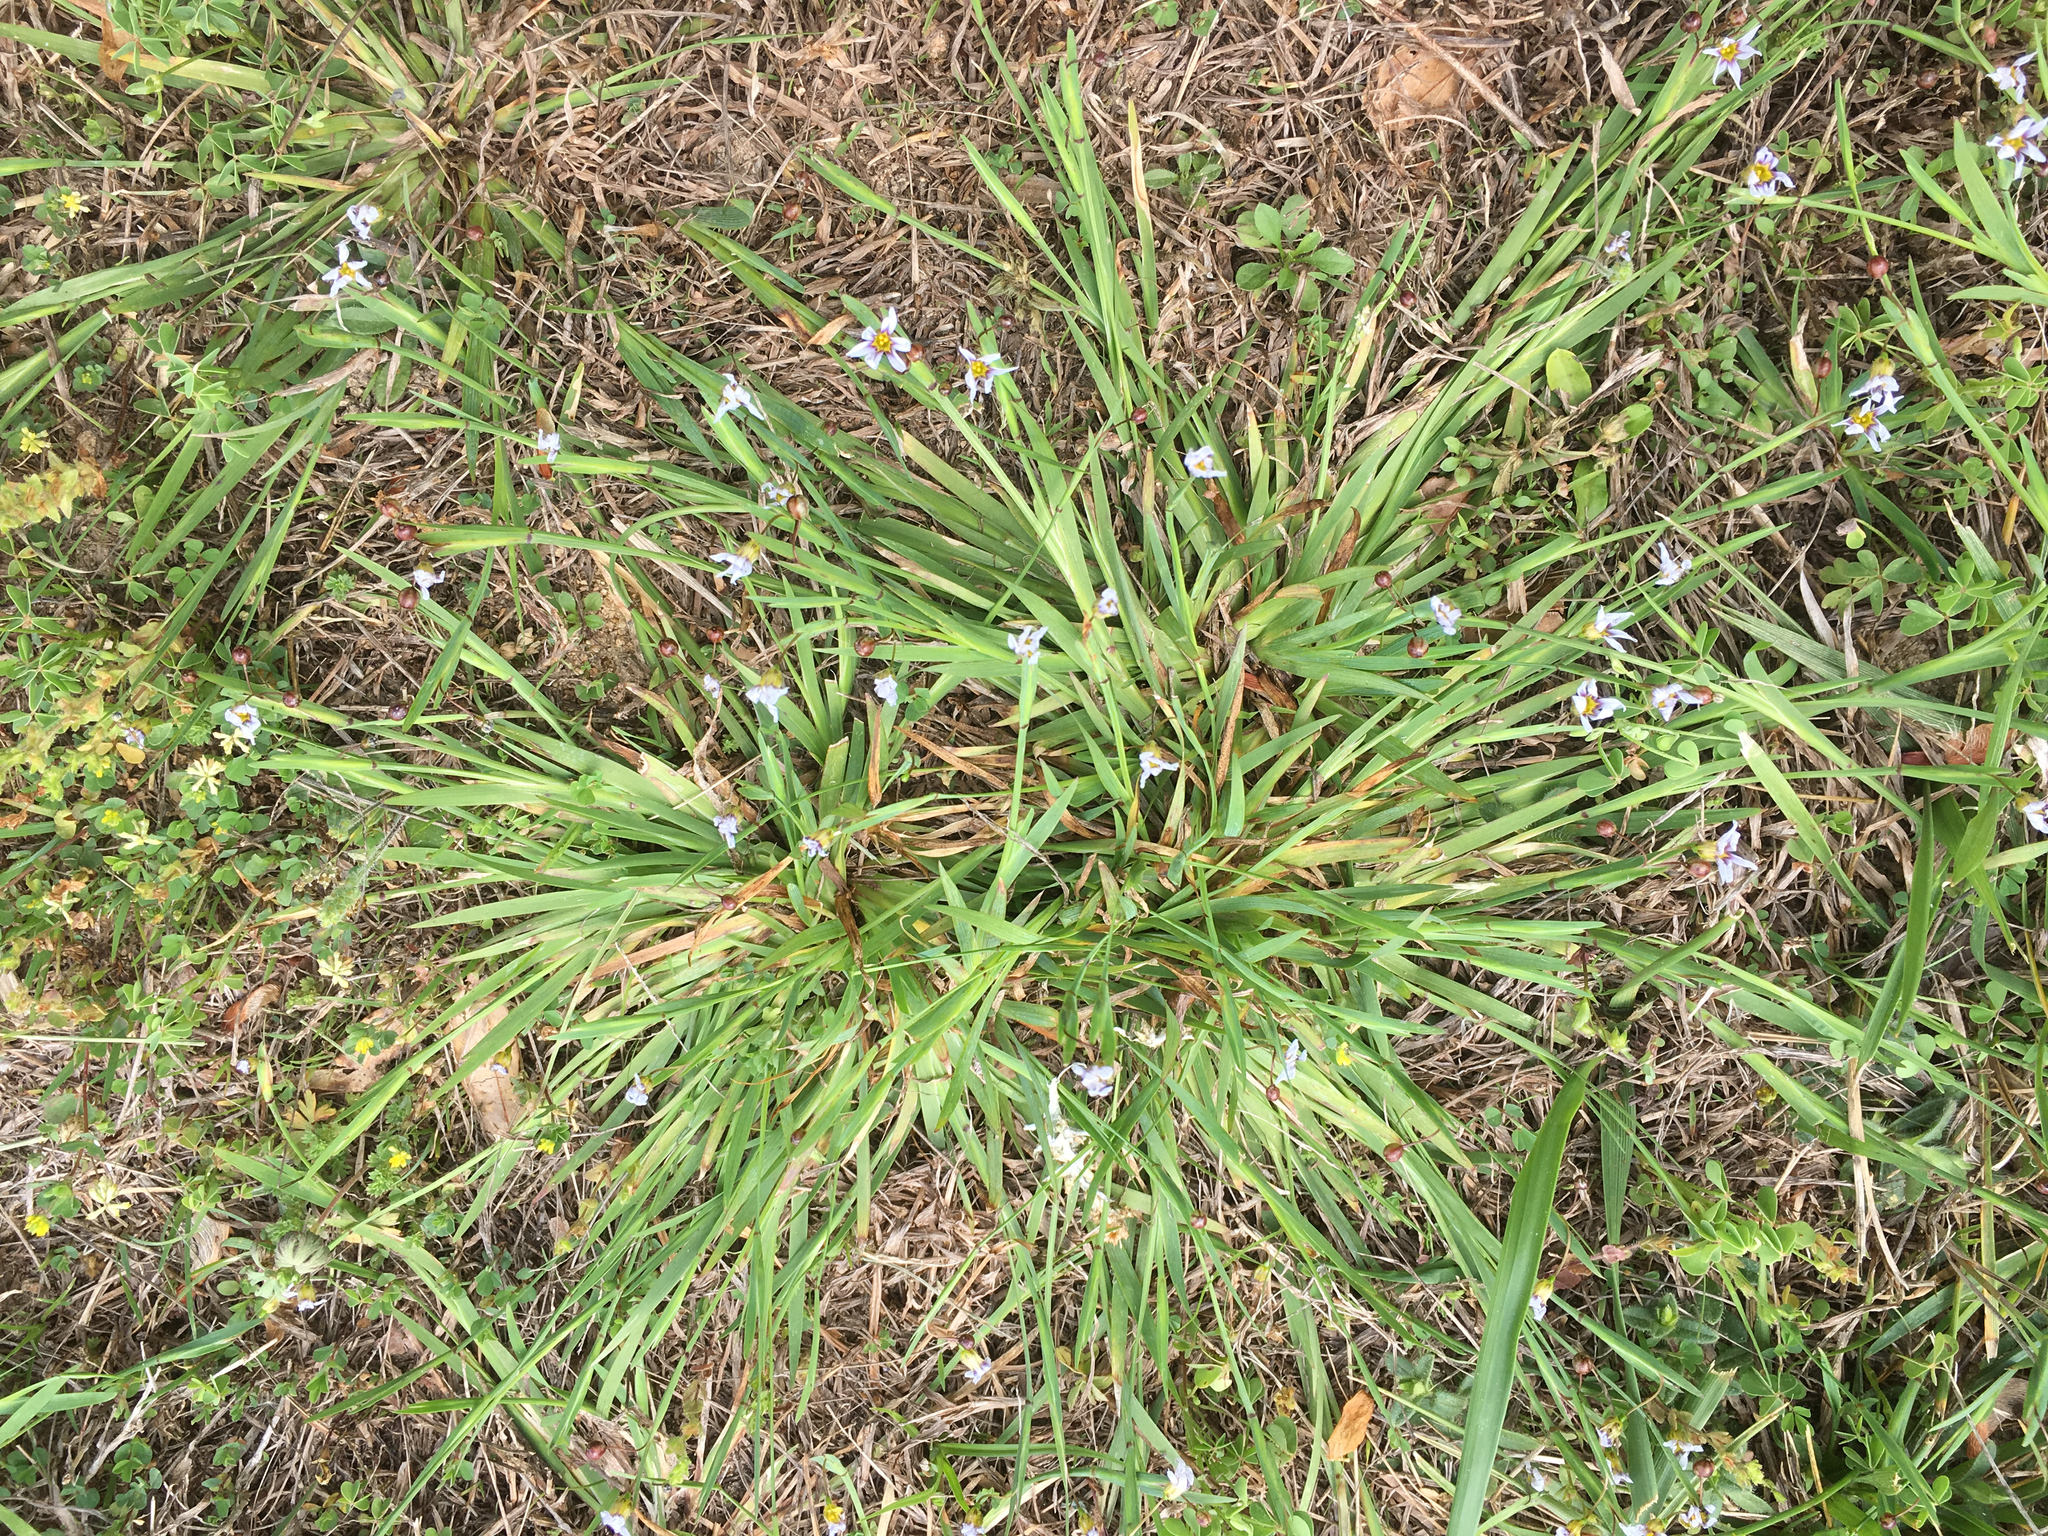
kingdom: Plantae
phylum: Tracheophyta
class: Liliopsida
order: Asparagales
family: Iridaceae
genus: Sisyrinchium
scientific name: Sisyrinchium micranthum
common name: Bermuda pigroot
